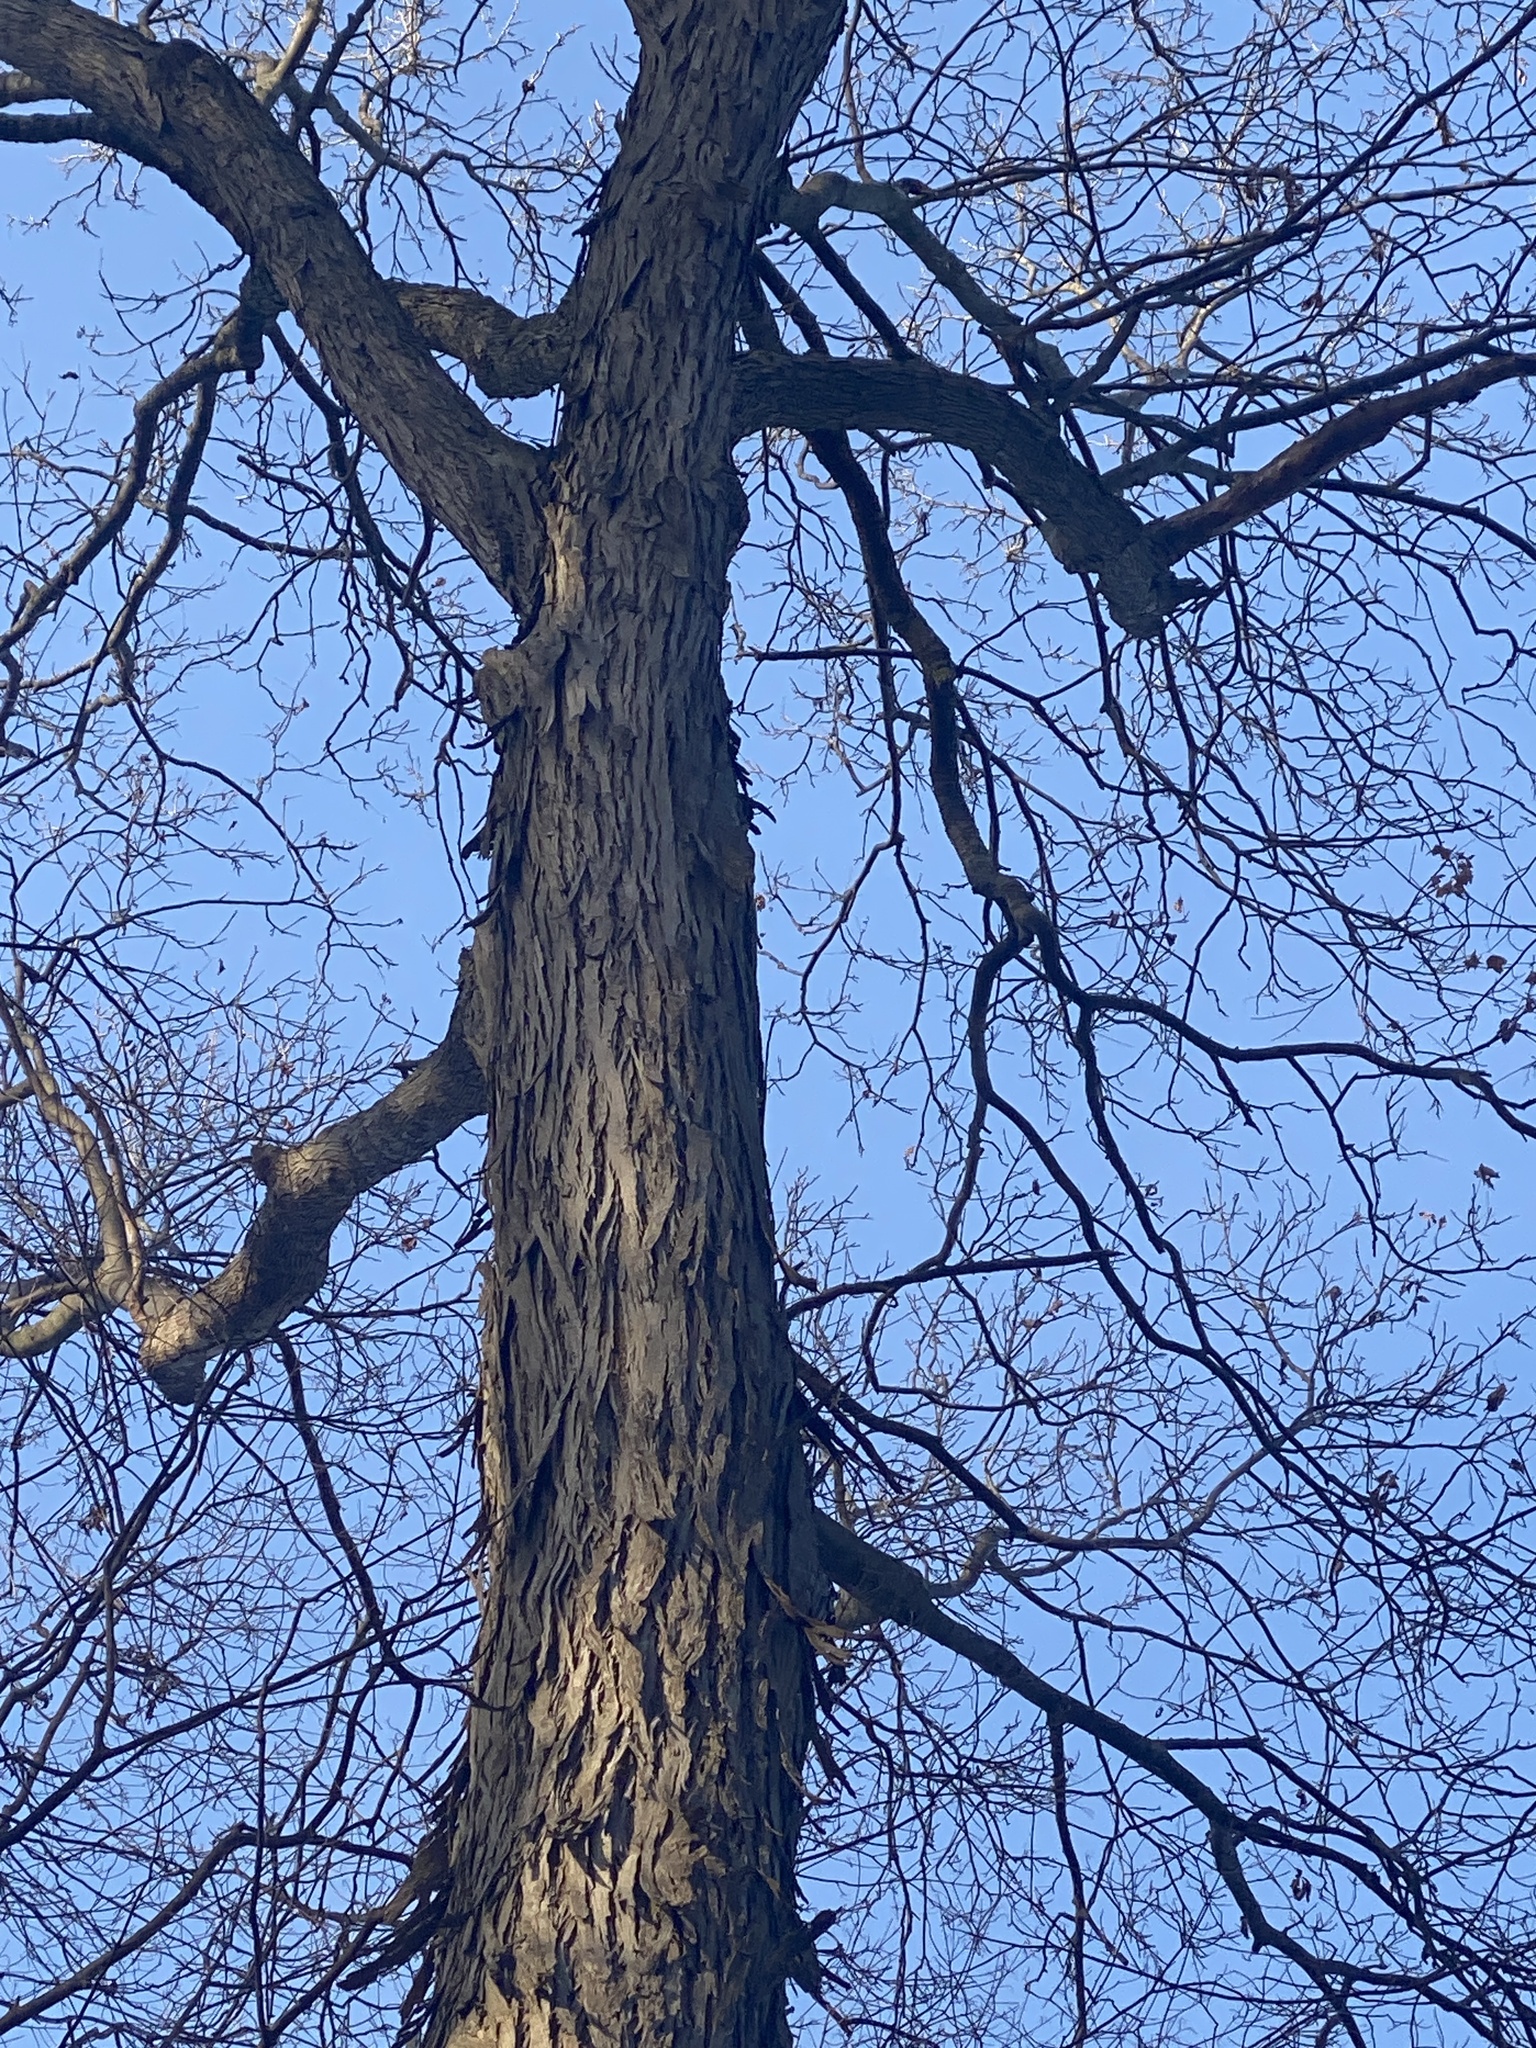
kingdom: Plantae
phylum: Tracheophyta
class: Magnoliopsida
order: Fagales
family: Juglandaceae
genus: Carya
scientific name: Carya ovata
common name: Shagbark hickory
